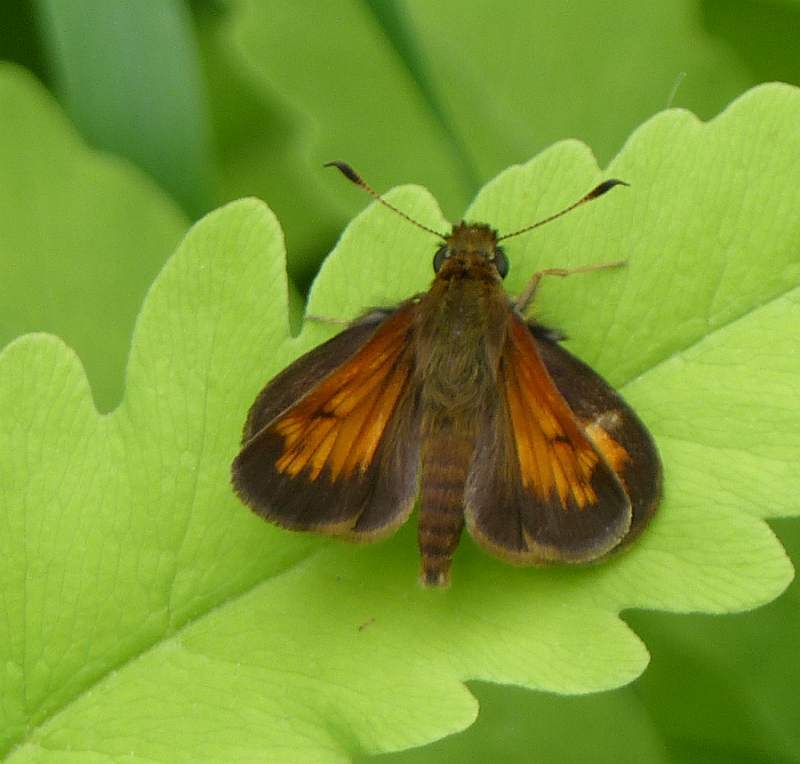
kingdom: Animalia
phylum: Arthropoda
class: Insecta
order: Lepidoptera
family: Hesperiidae
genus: Lon
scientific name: Lon hobomok
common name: Hobomok skipper
